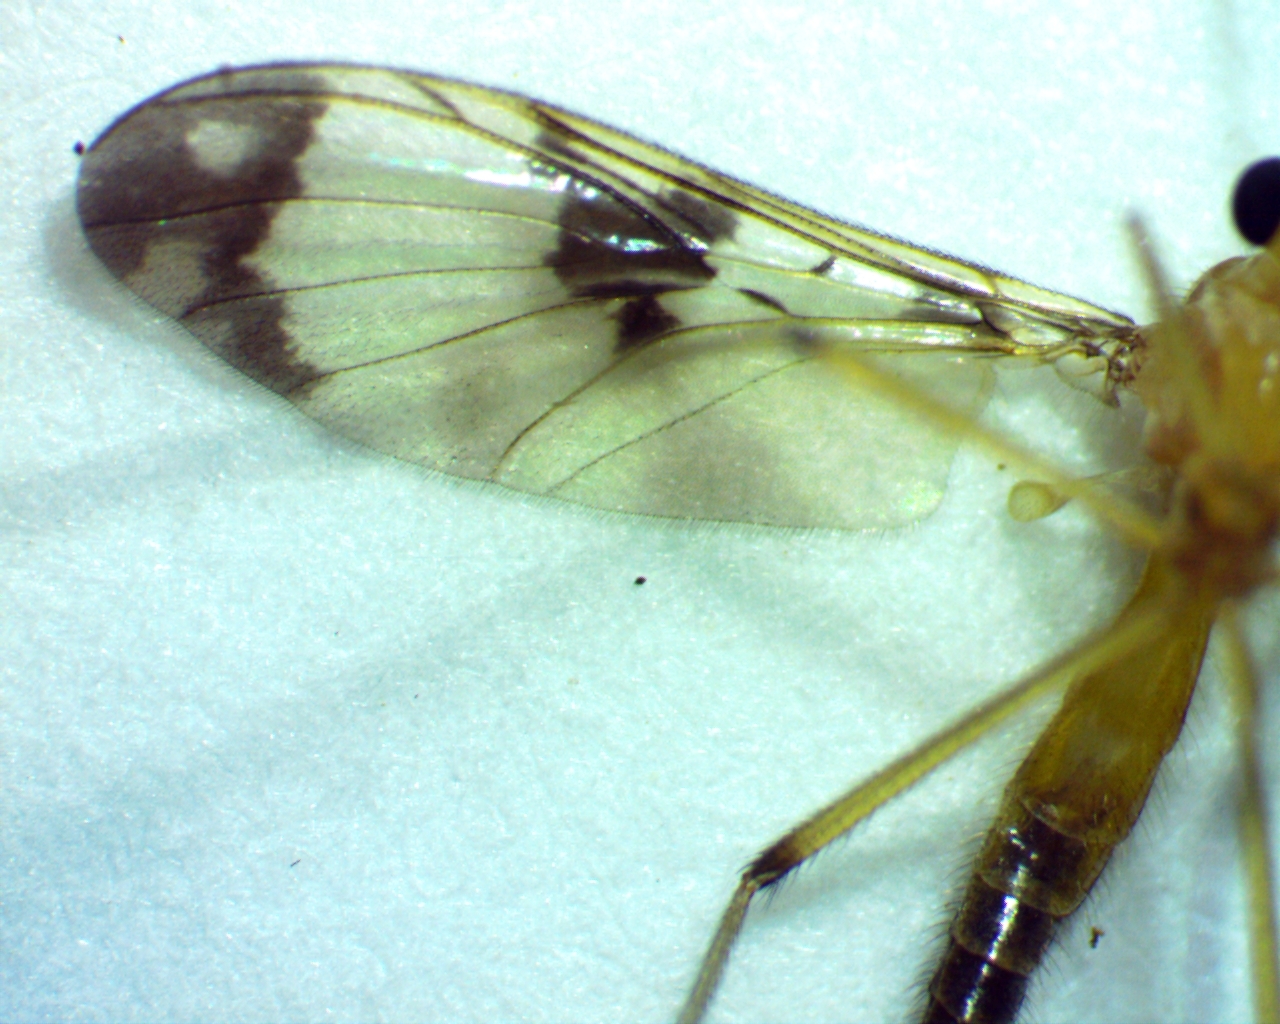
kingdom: Animalia
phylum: Arthropoda
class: Insecta
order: Diptera
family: Keroplatidae
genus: Macrocera
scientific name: Macrocera formosa
